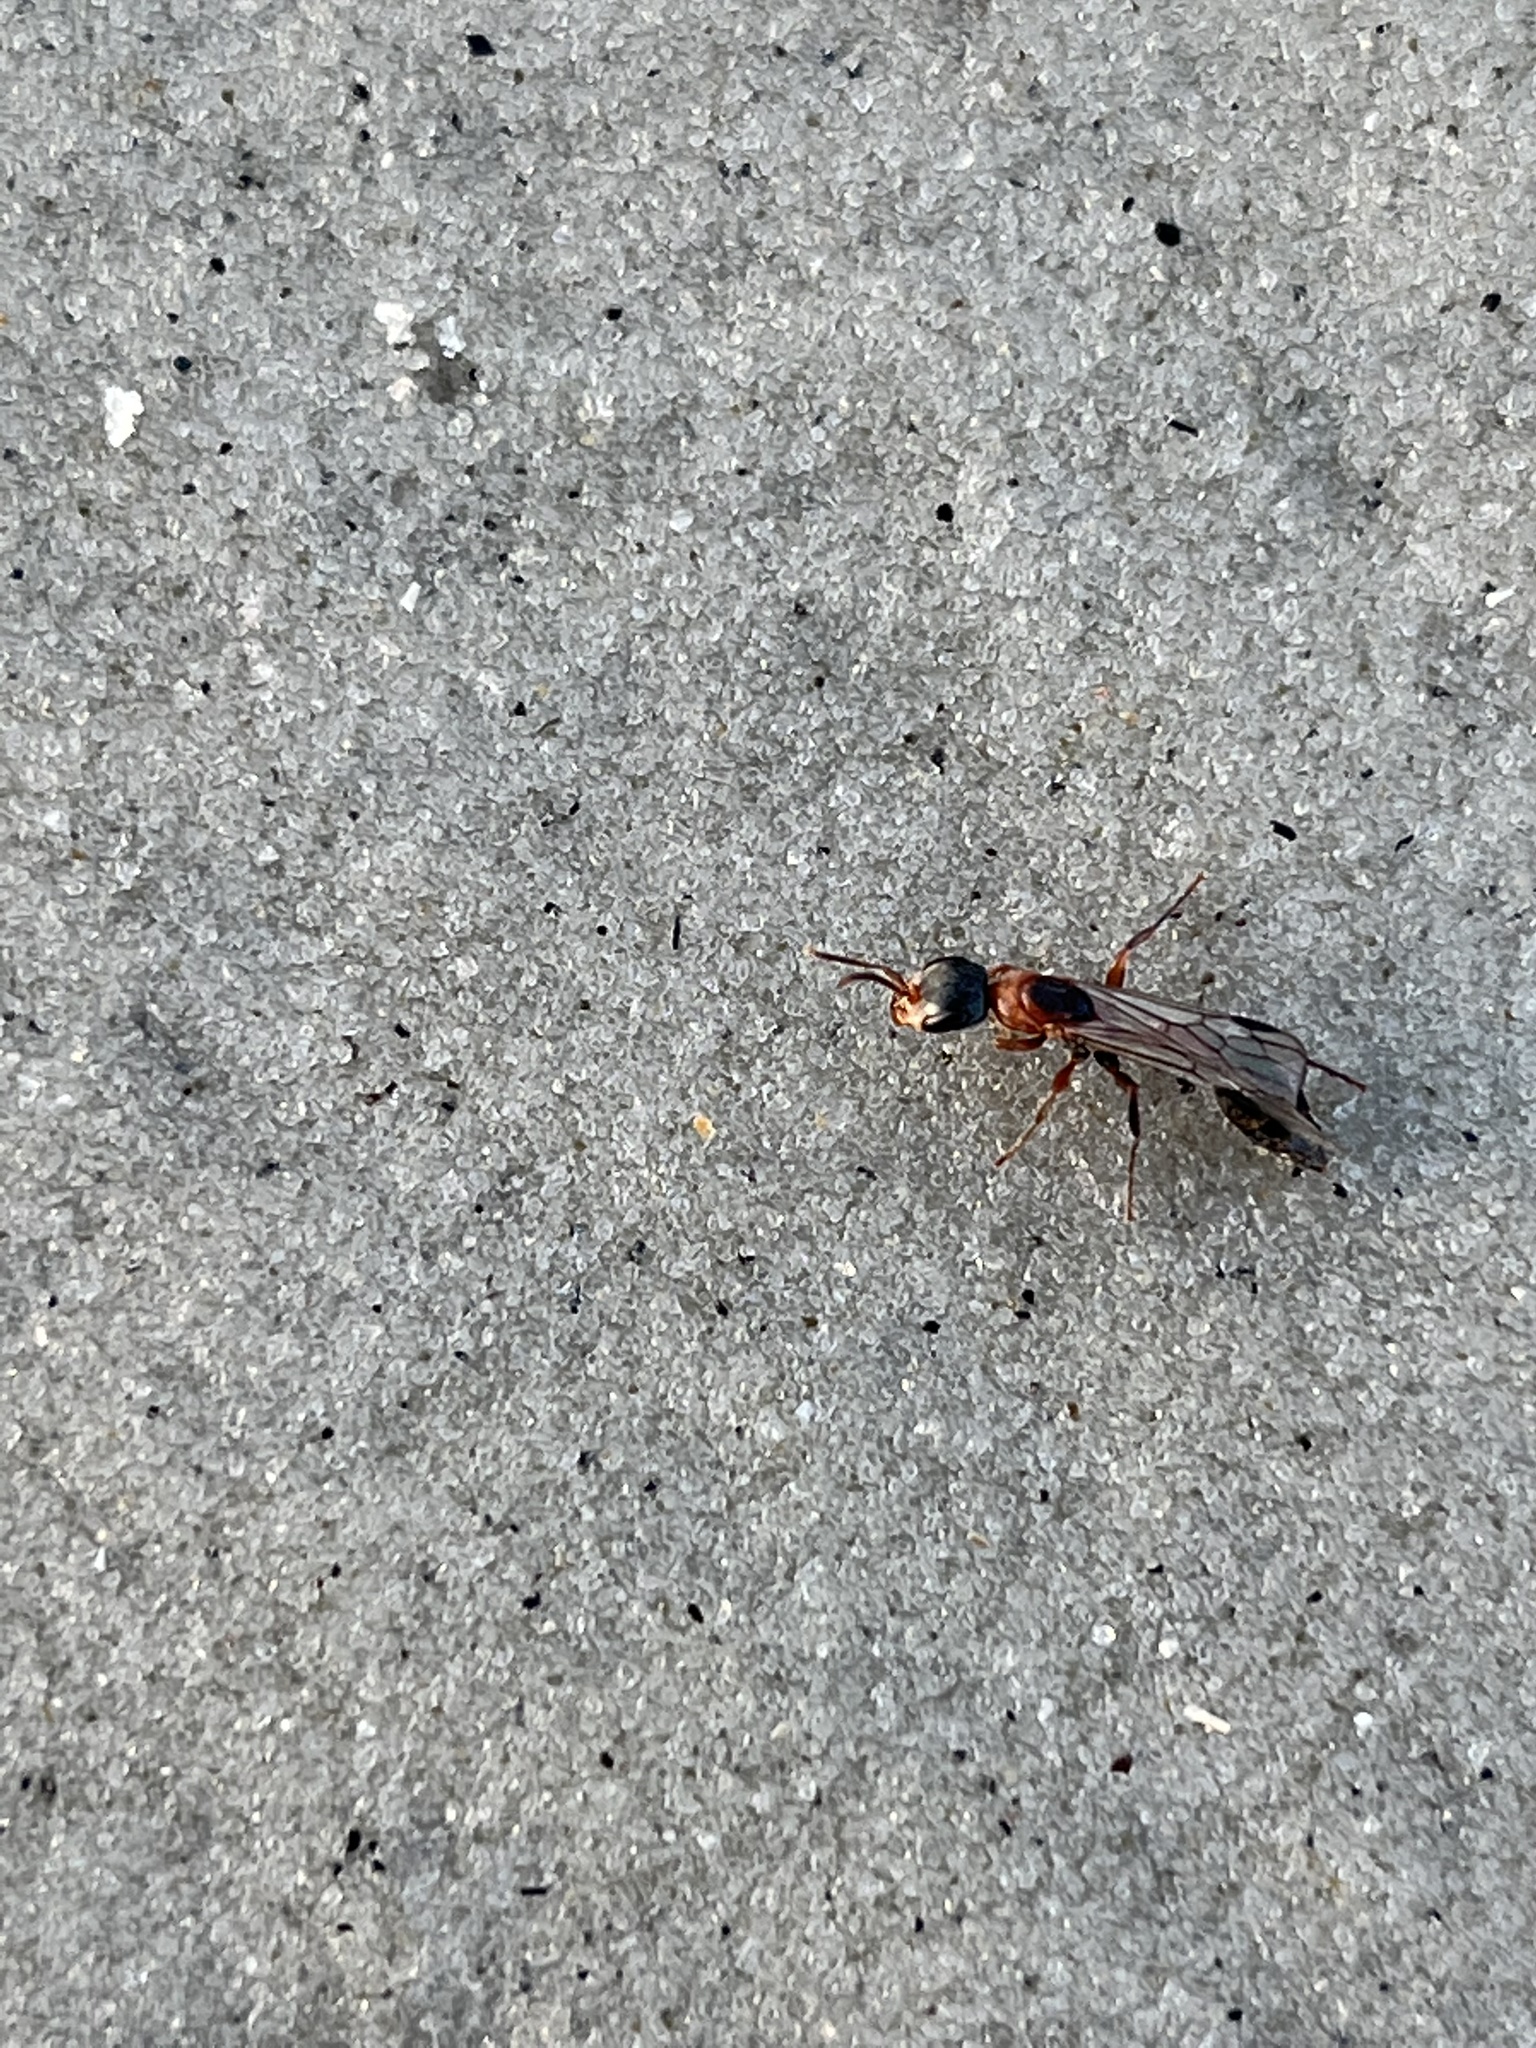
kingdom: Animalia
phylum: Arthropoda
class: Insecta
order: Hymenoptera
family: Formicidae
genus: Pseudomyrmex
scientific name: Pseudomyrmex gracilis
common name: Graceful twig ant
